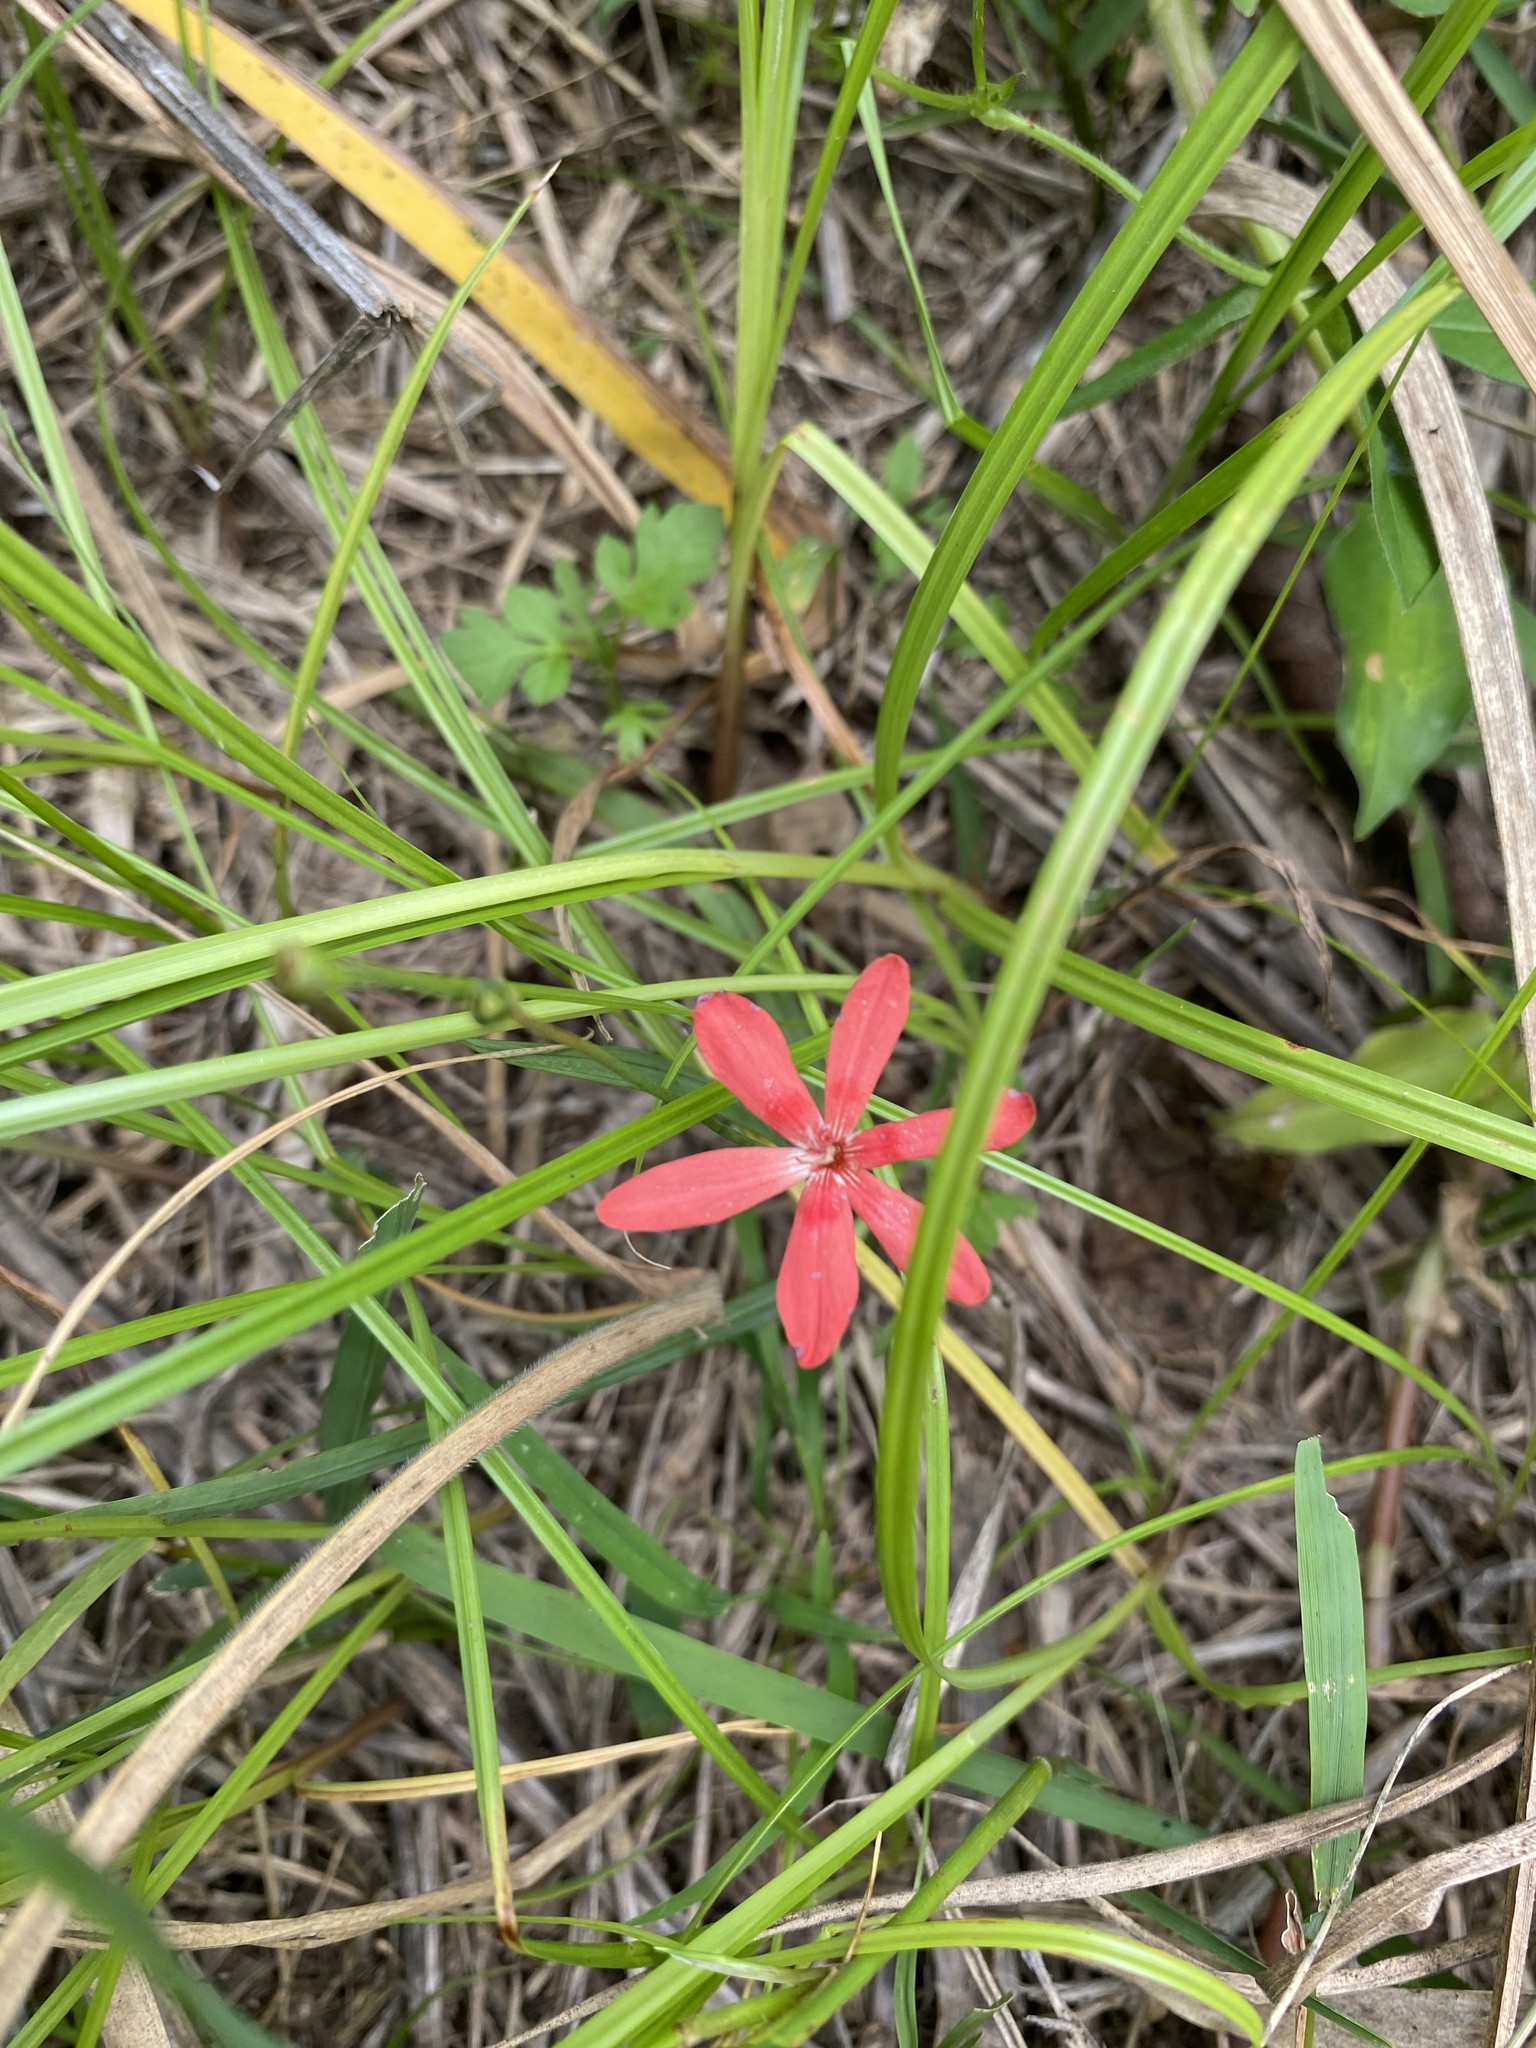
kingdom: Plantae
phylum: Tracheophyta
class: Liliopsida
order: Asparagales
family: Iridaceae
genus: Freesia
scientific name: Freesia laxa
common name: False freesia
